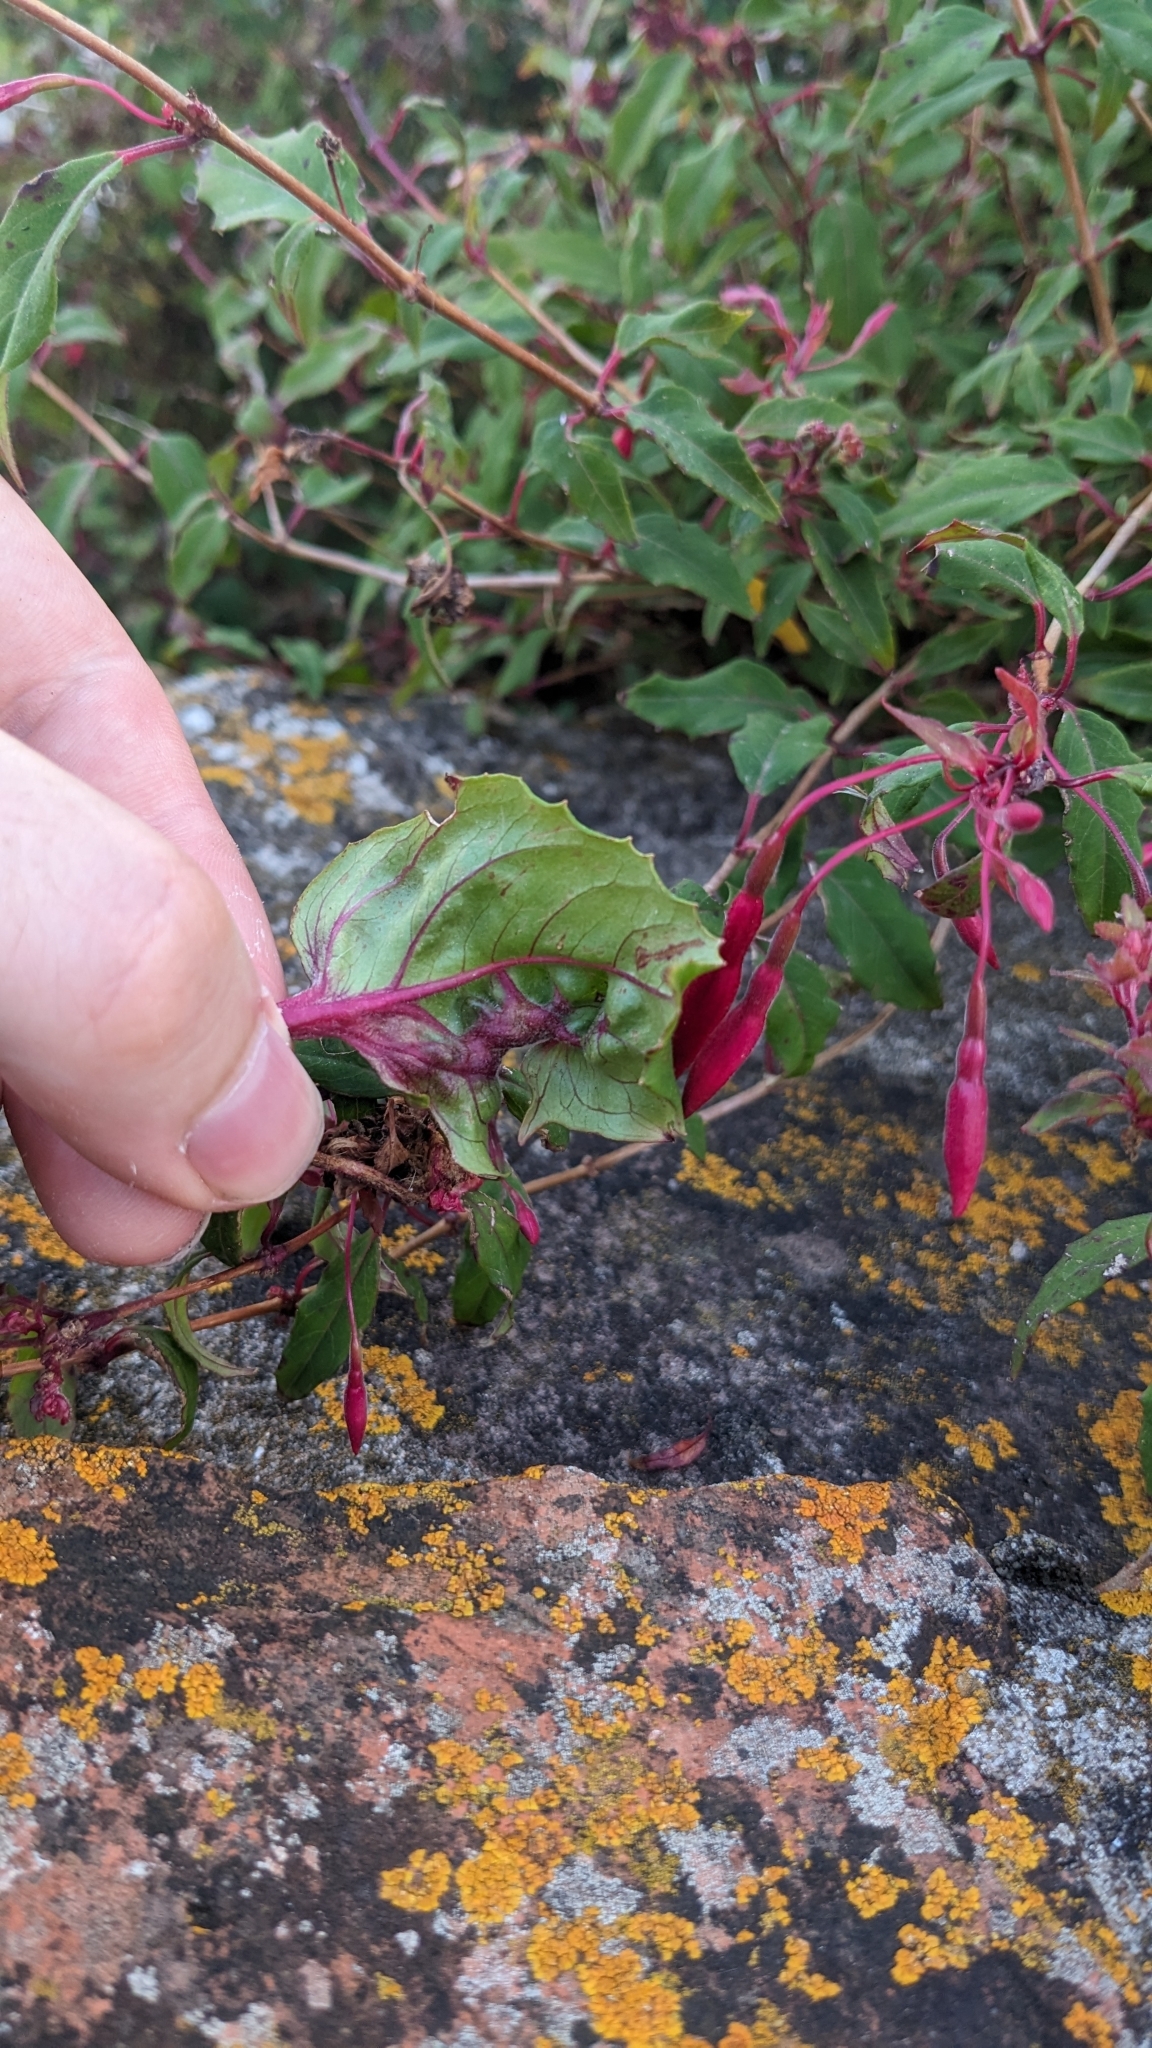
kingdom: Animalia
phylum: Arthropoda
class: Arachnida
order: Trombidiformes
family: Eriophyidae
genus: Aculops
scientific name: Aculops fuchsiae
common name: Fuchsia gall mite
